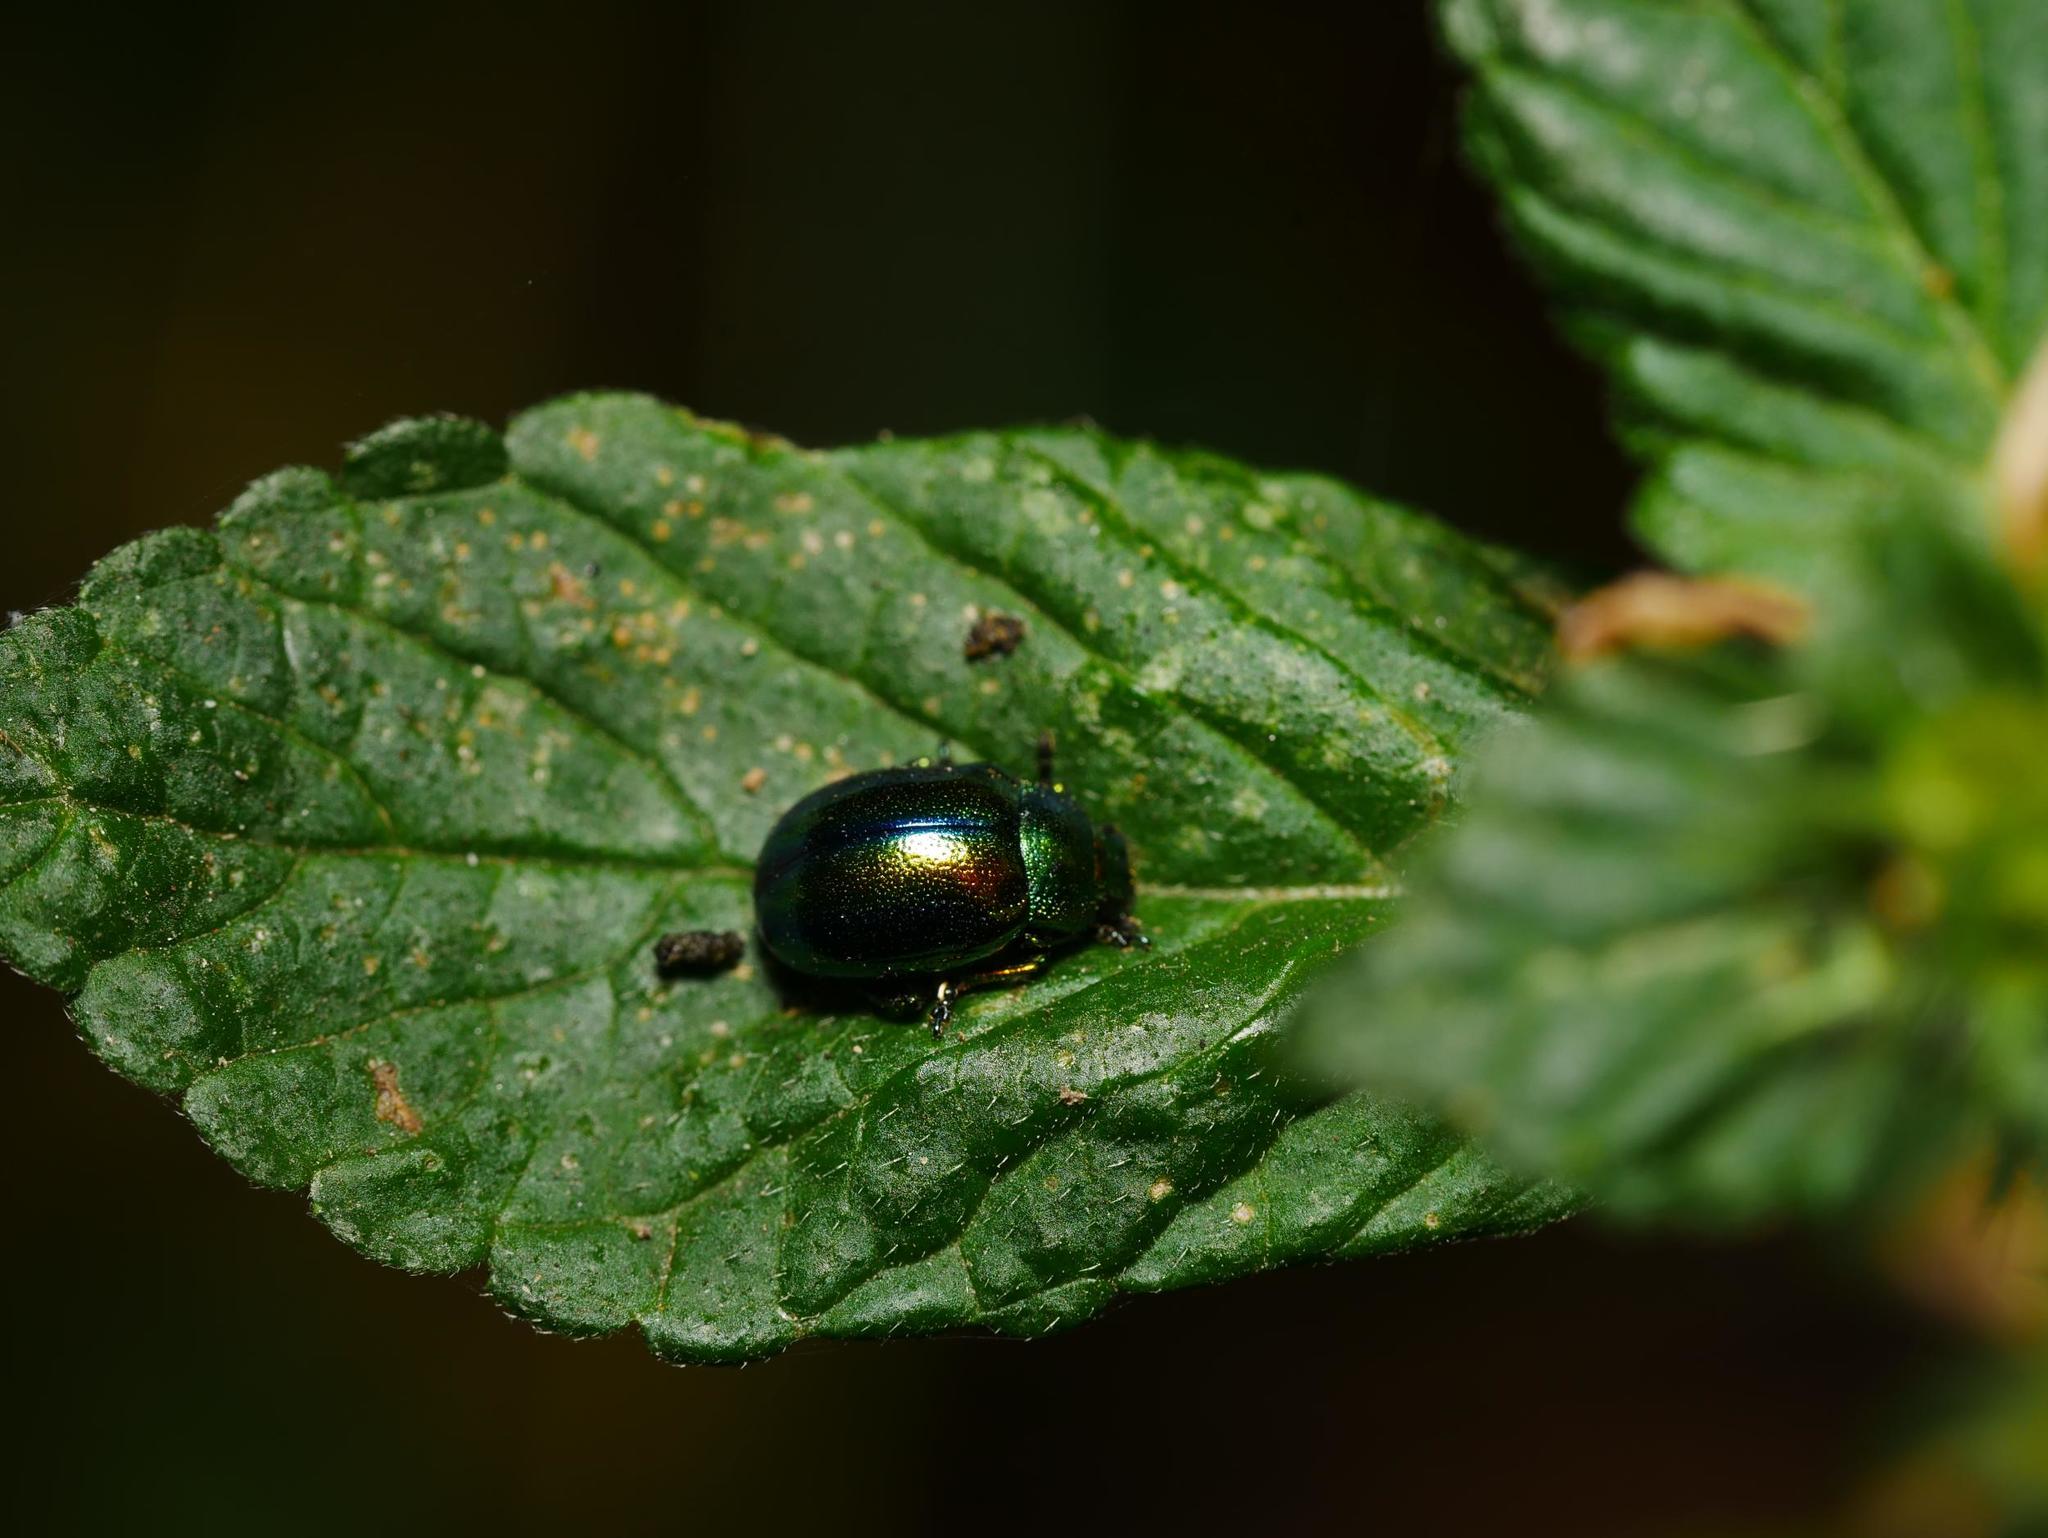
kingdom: Animalia
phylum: Arthropoda
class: Insecta
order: Coleoptera
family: Chrysomelidae
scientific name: Chrysomelidae
